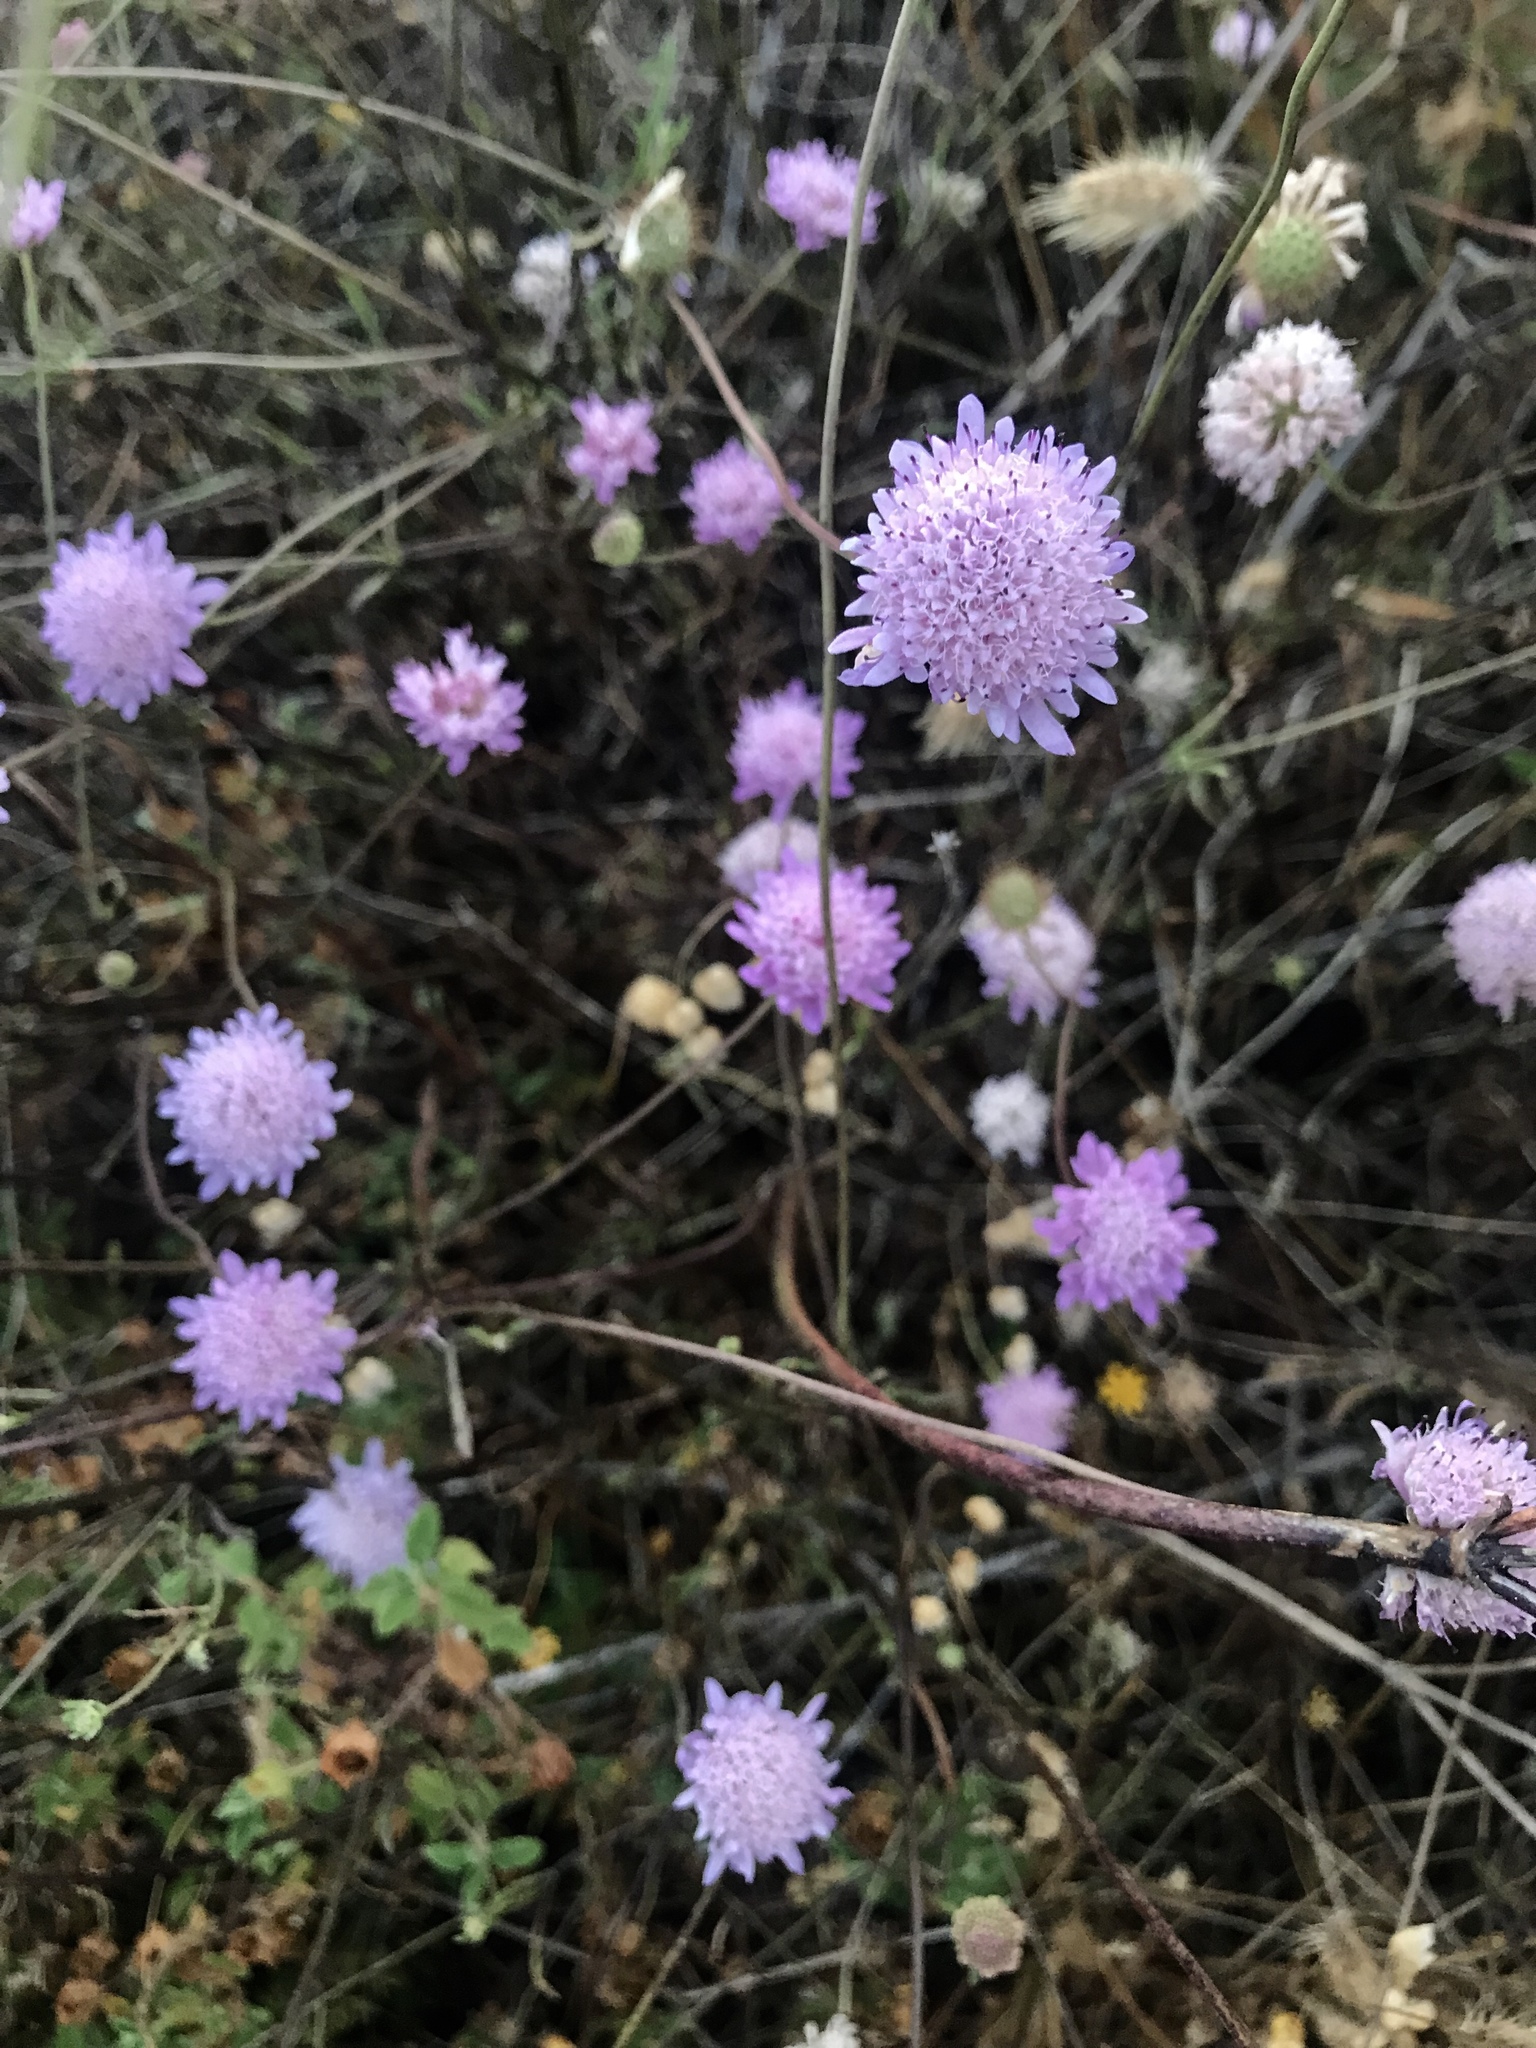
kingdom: Plantae
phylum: Tracheophyta
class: Magnoliopsida
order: Dipsacales
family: Caprifoliaceae
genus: Sixalix
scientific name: Sixalix atropurpurea
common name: Sweet scabious
